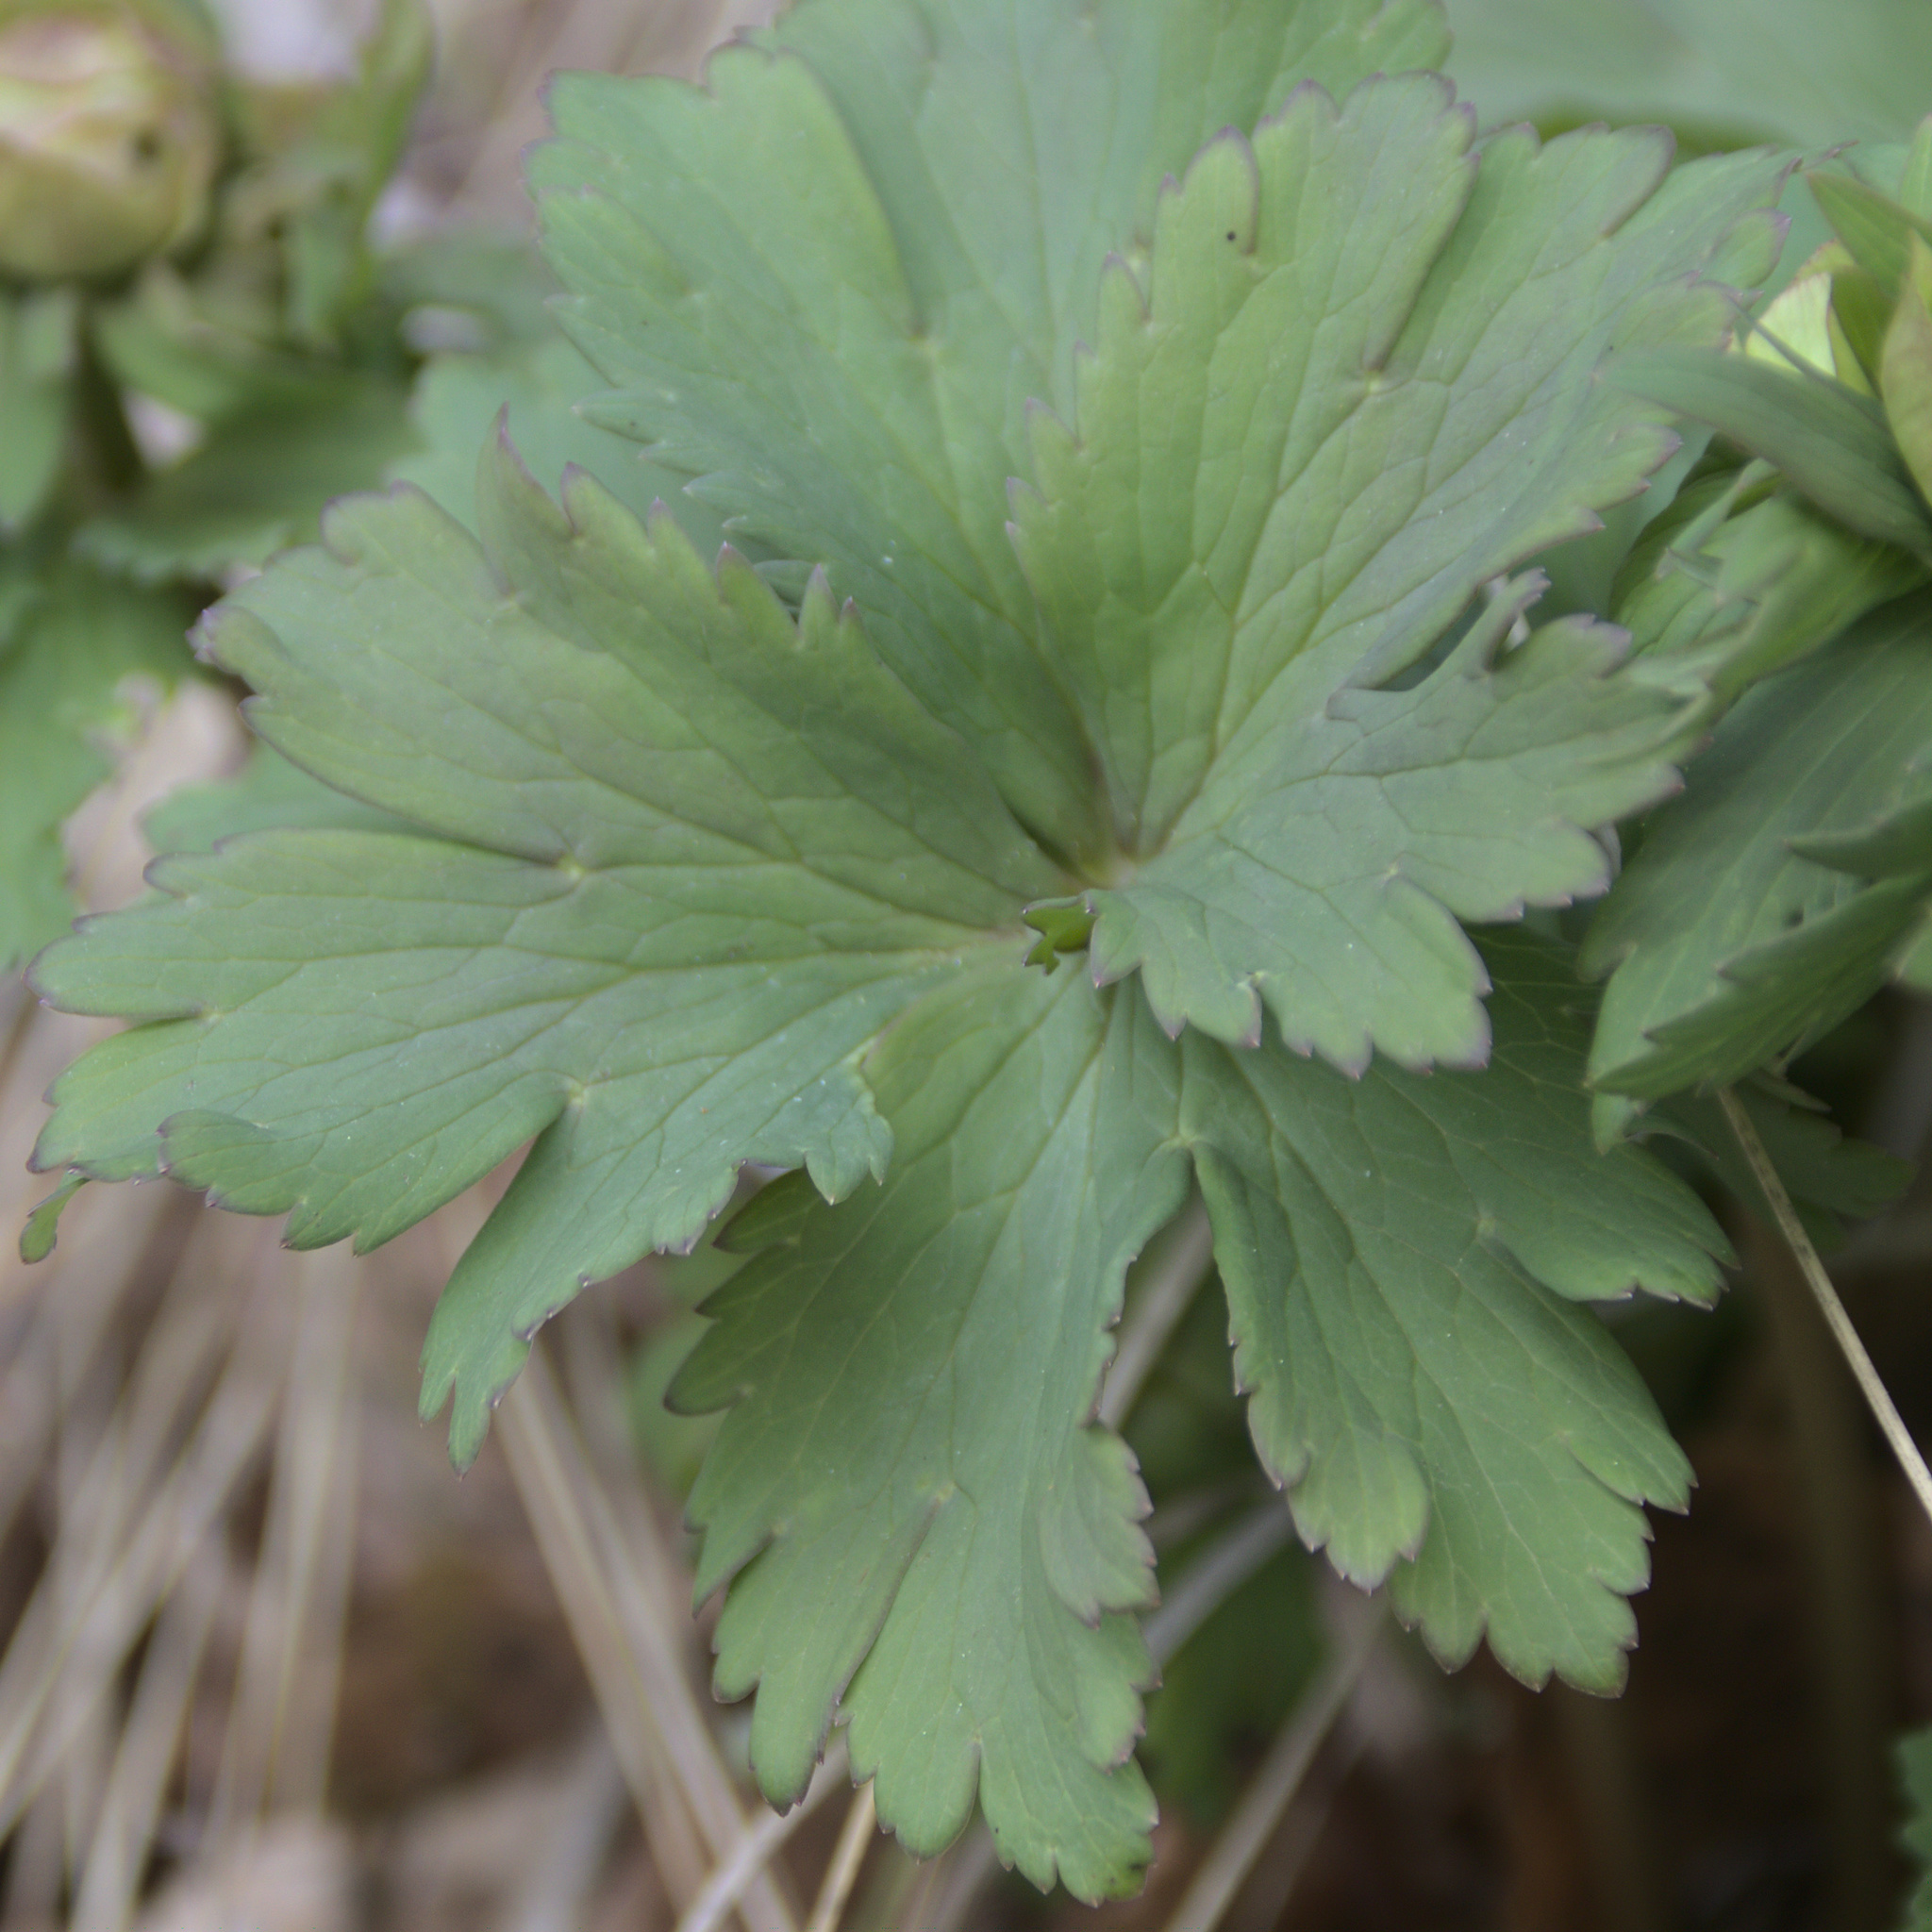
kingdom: Plantae
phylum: Tracheophyta
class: Magnoliopsida
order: Ranunculales
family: Ranunculaceae
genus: Trollius
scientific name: Trollius europaeus
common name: European globeflower
